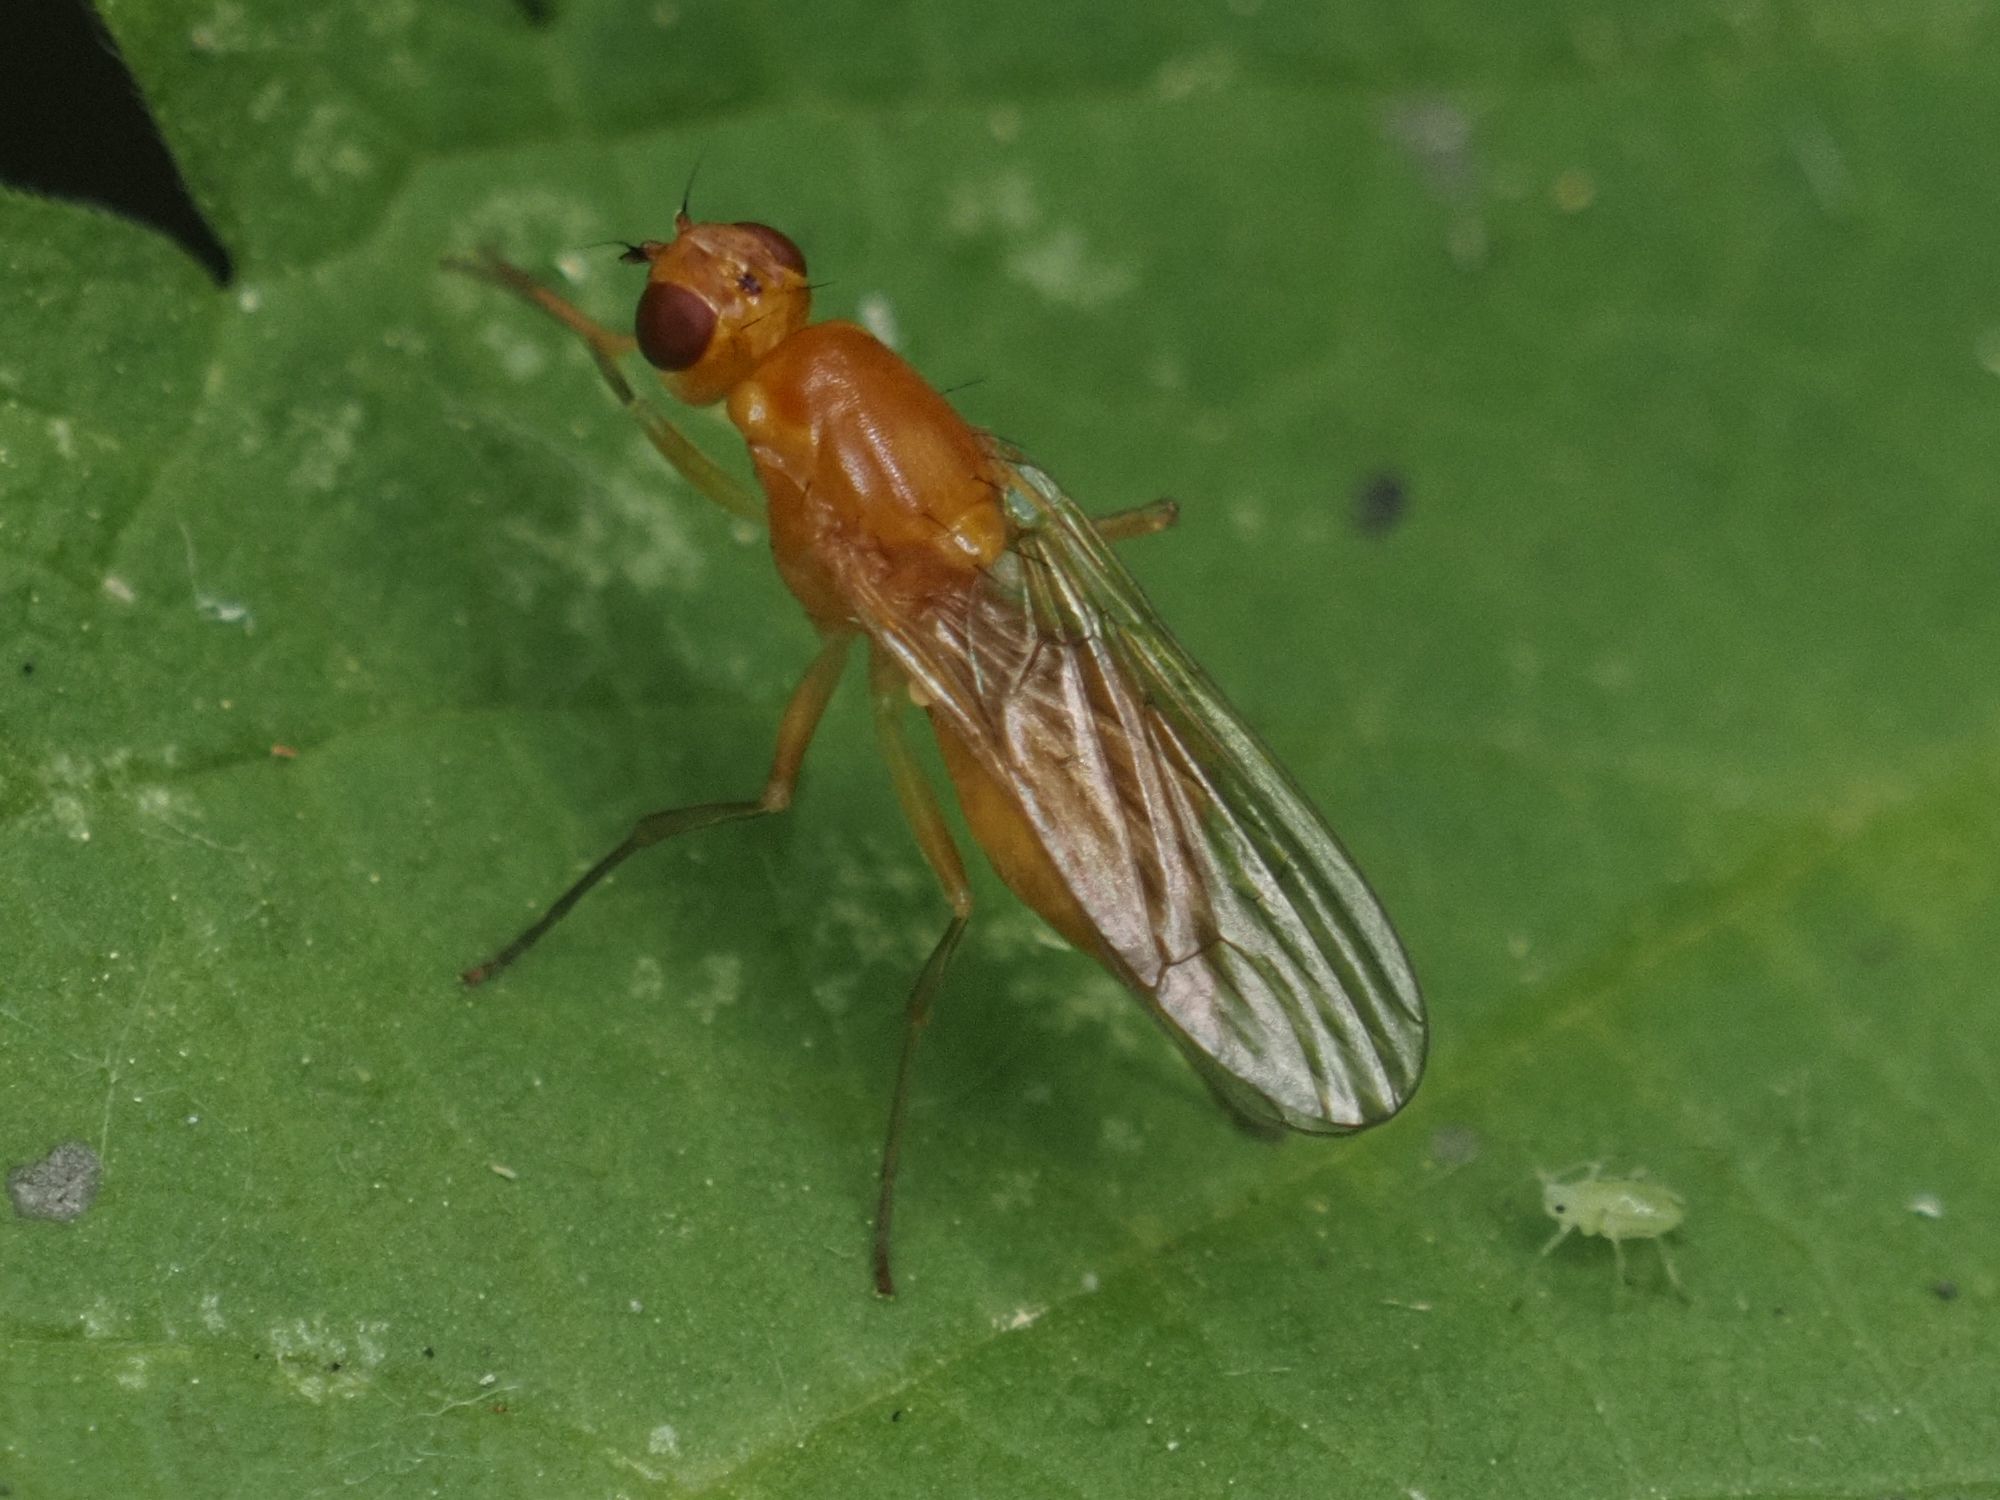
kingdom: Animalia
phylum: Arthropoda
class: Insecta
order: Diptera
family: Psilidae
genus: Psila
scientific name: Psila fimetaria
